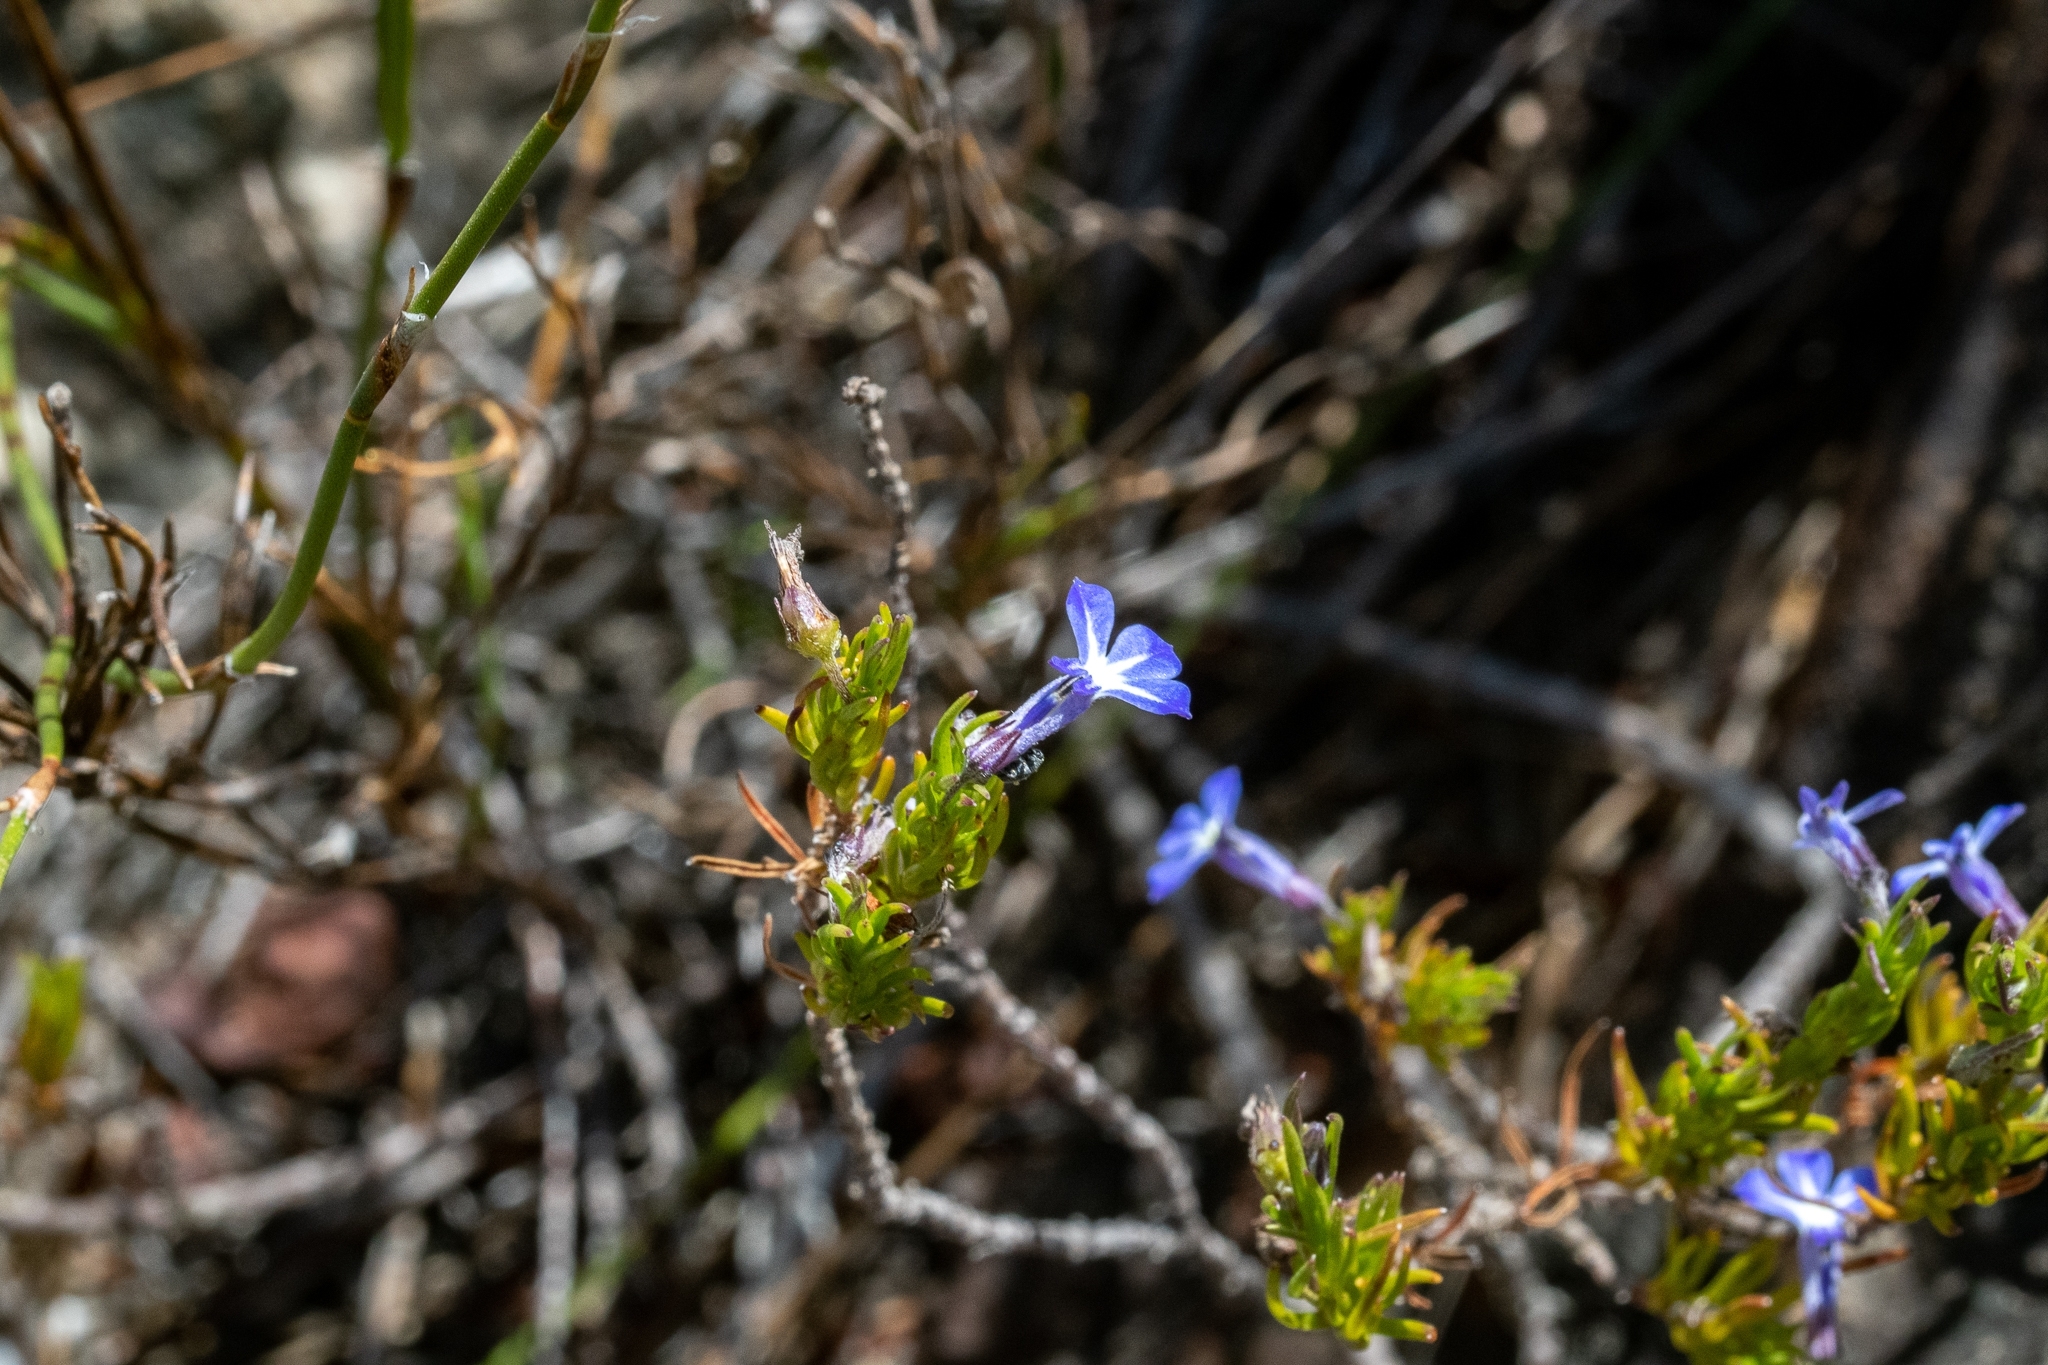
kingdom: Plantae
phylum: Tracheophyta
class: Magnoliopsida
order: Asterales
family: Campanulaceae
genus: Lobelia
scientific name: Lobelia pinifolia
